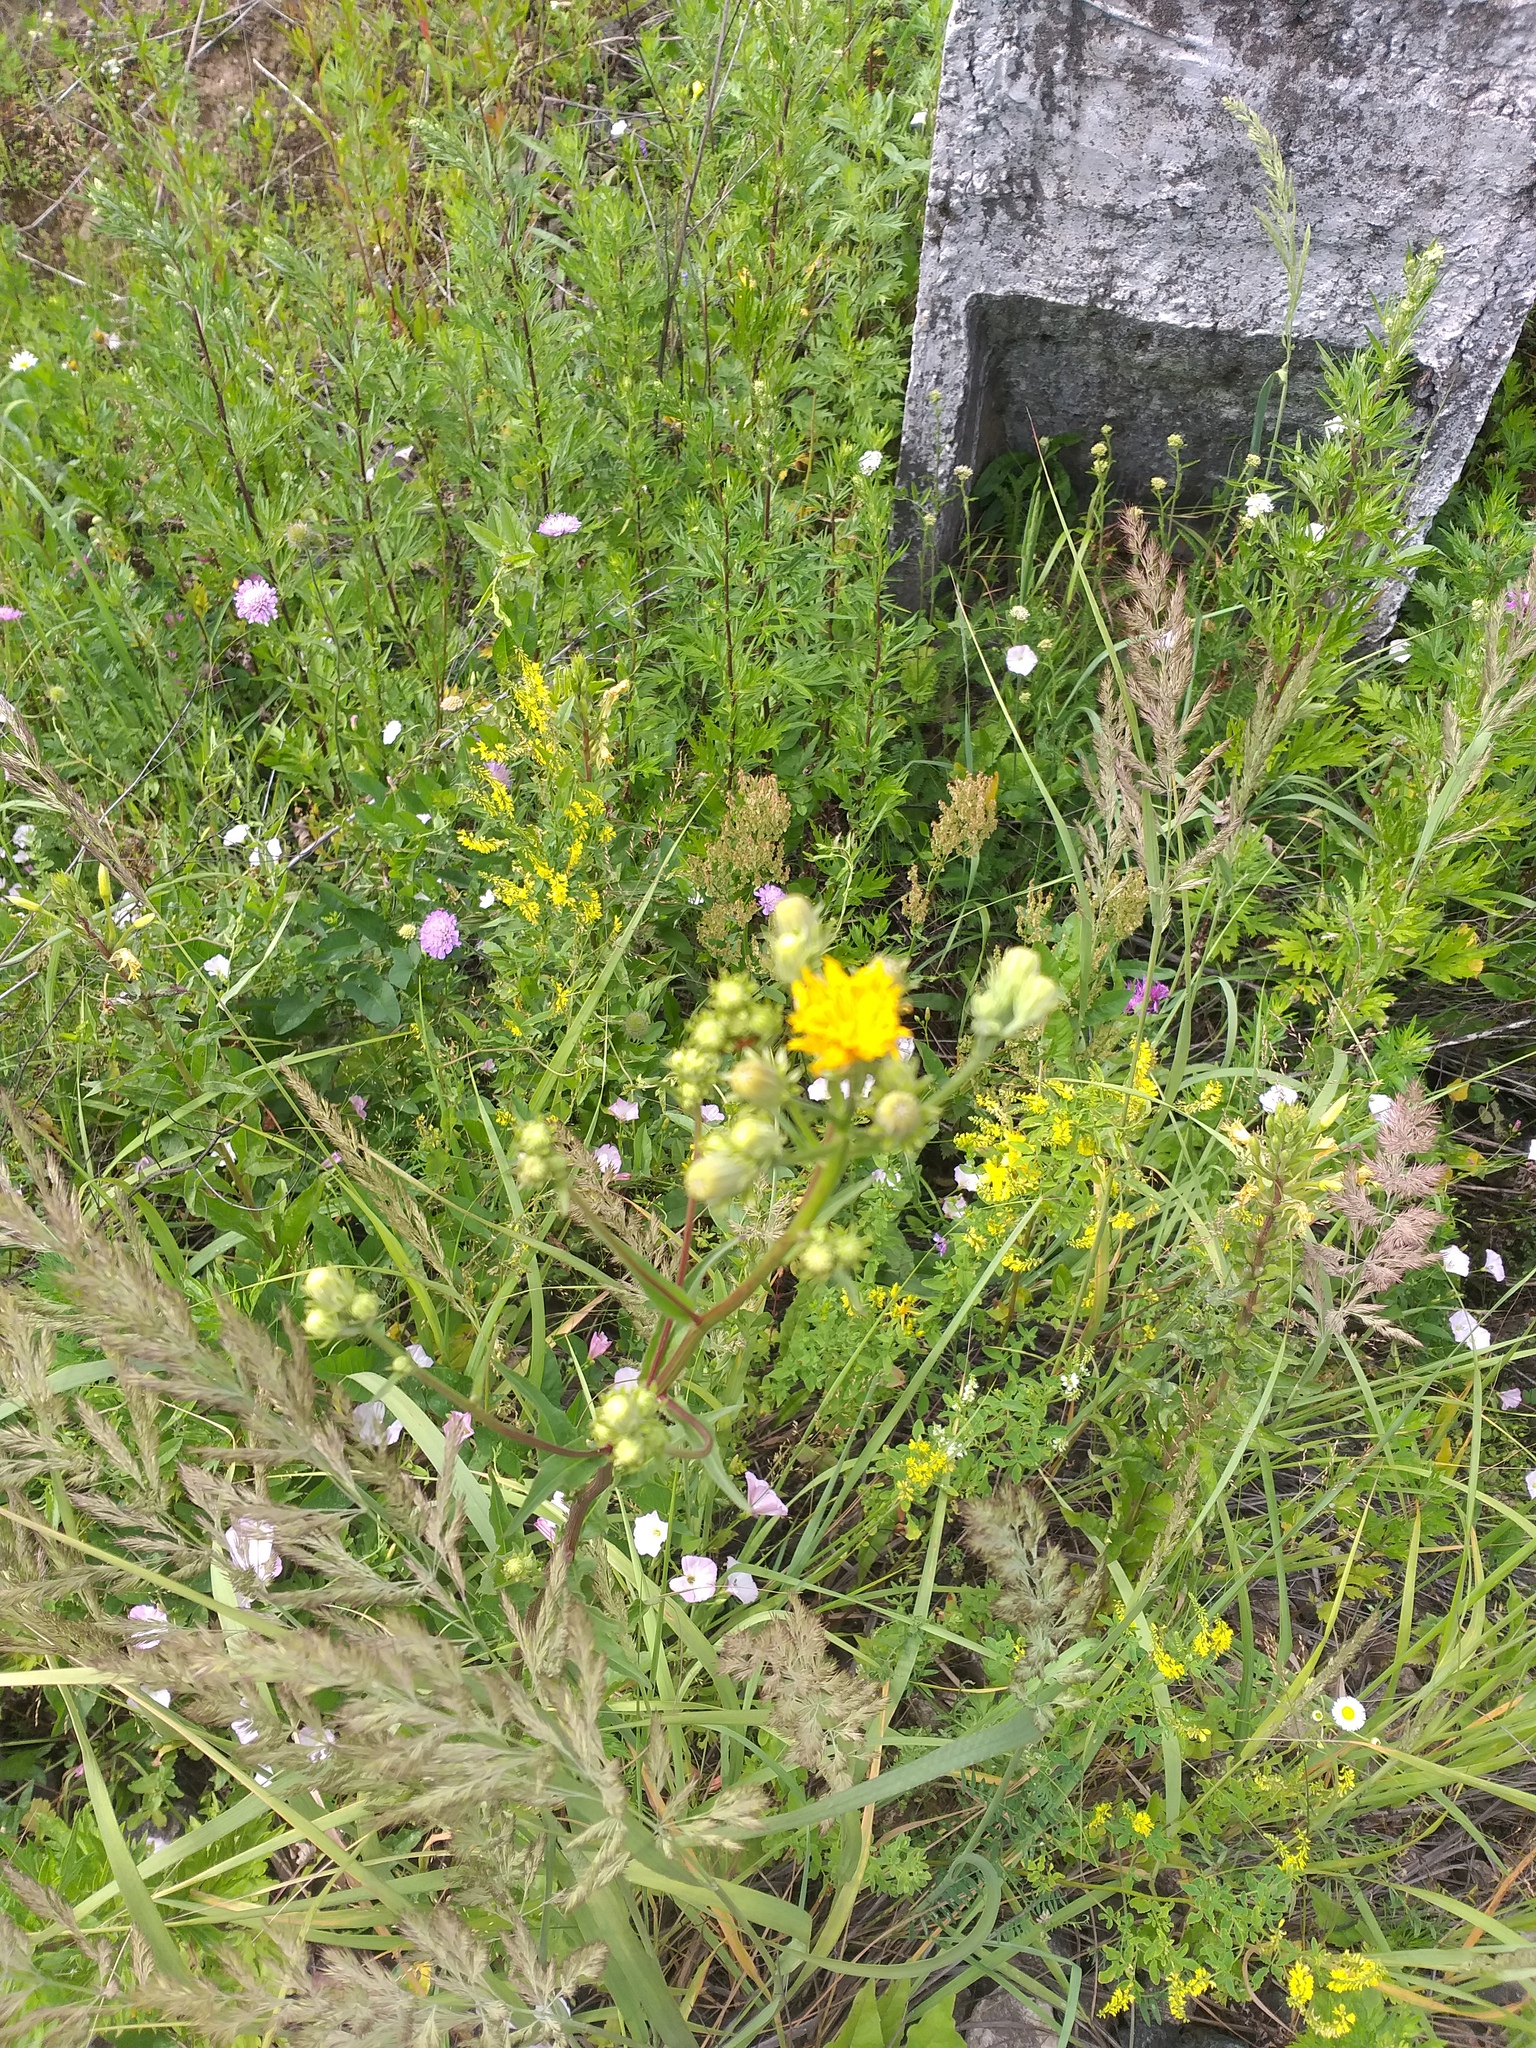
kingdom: Plantae
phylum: Tracheophyta
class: Magnoliopsida
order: Asterales
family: Asteraceae
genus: Picris
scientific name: Picris hieracioides
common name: Hawkweed oxtongue
